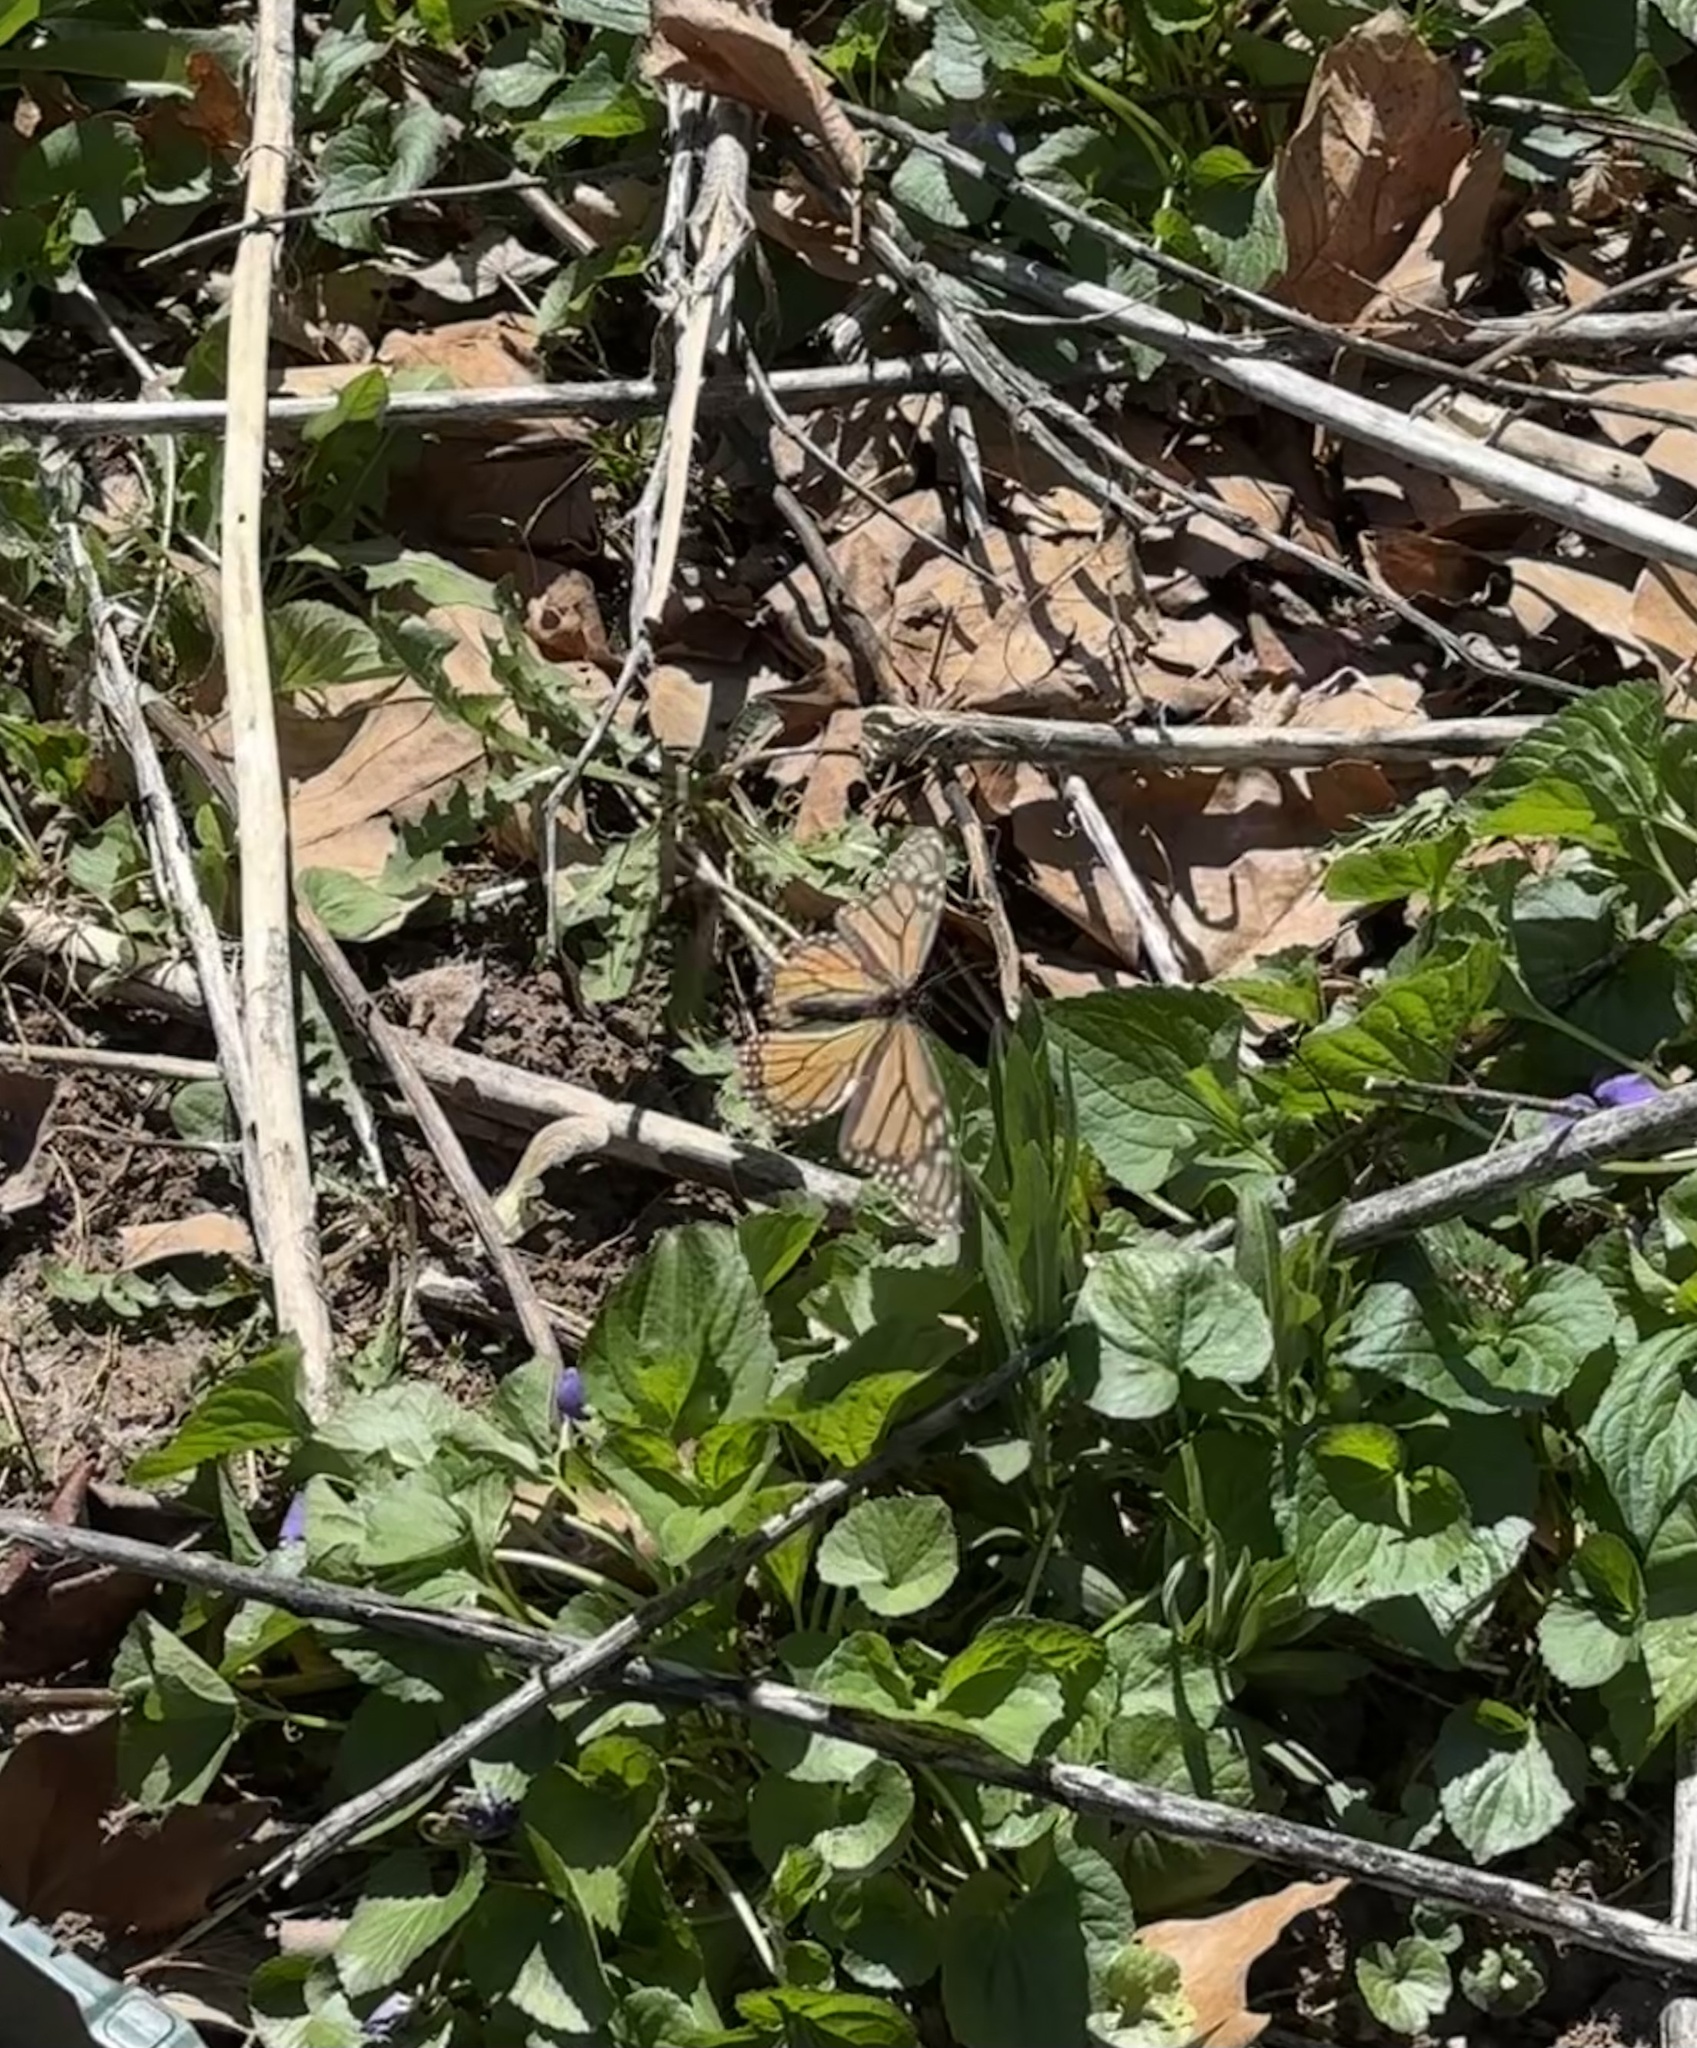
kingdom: Animalia
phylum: Arthropoda
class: Insecta
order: Lepidoptera
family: Nymphalidae
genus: Danaus
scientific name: Danaus plexippus
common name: Monarch
